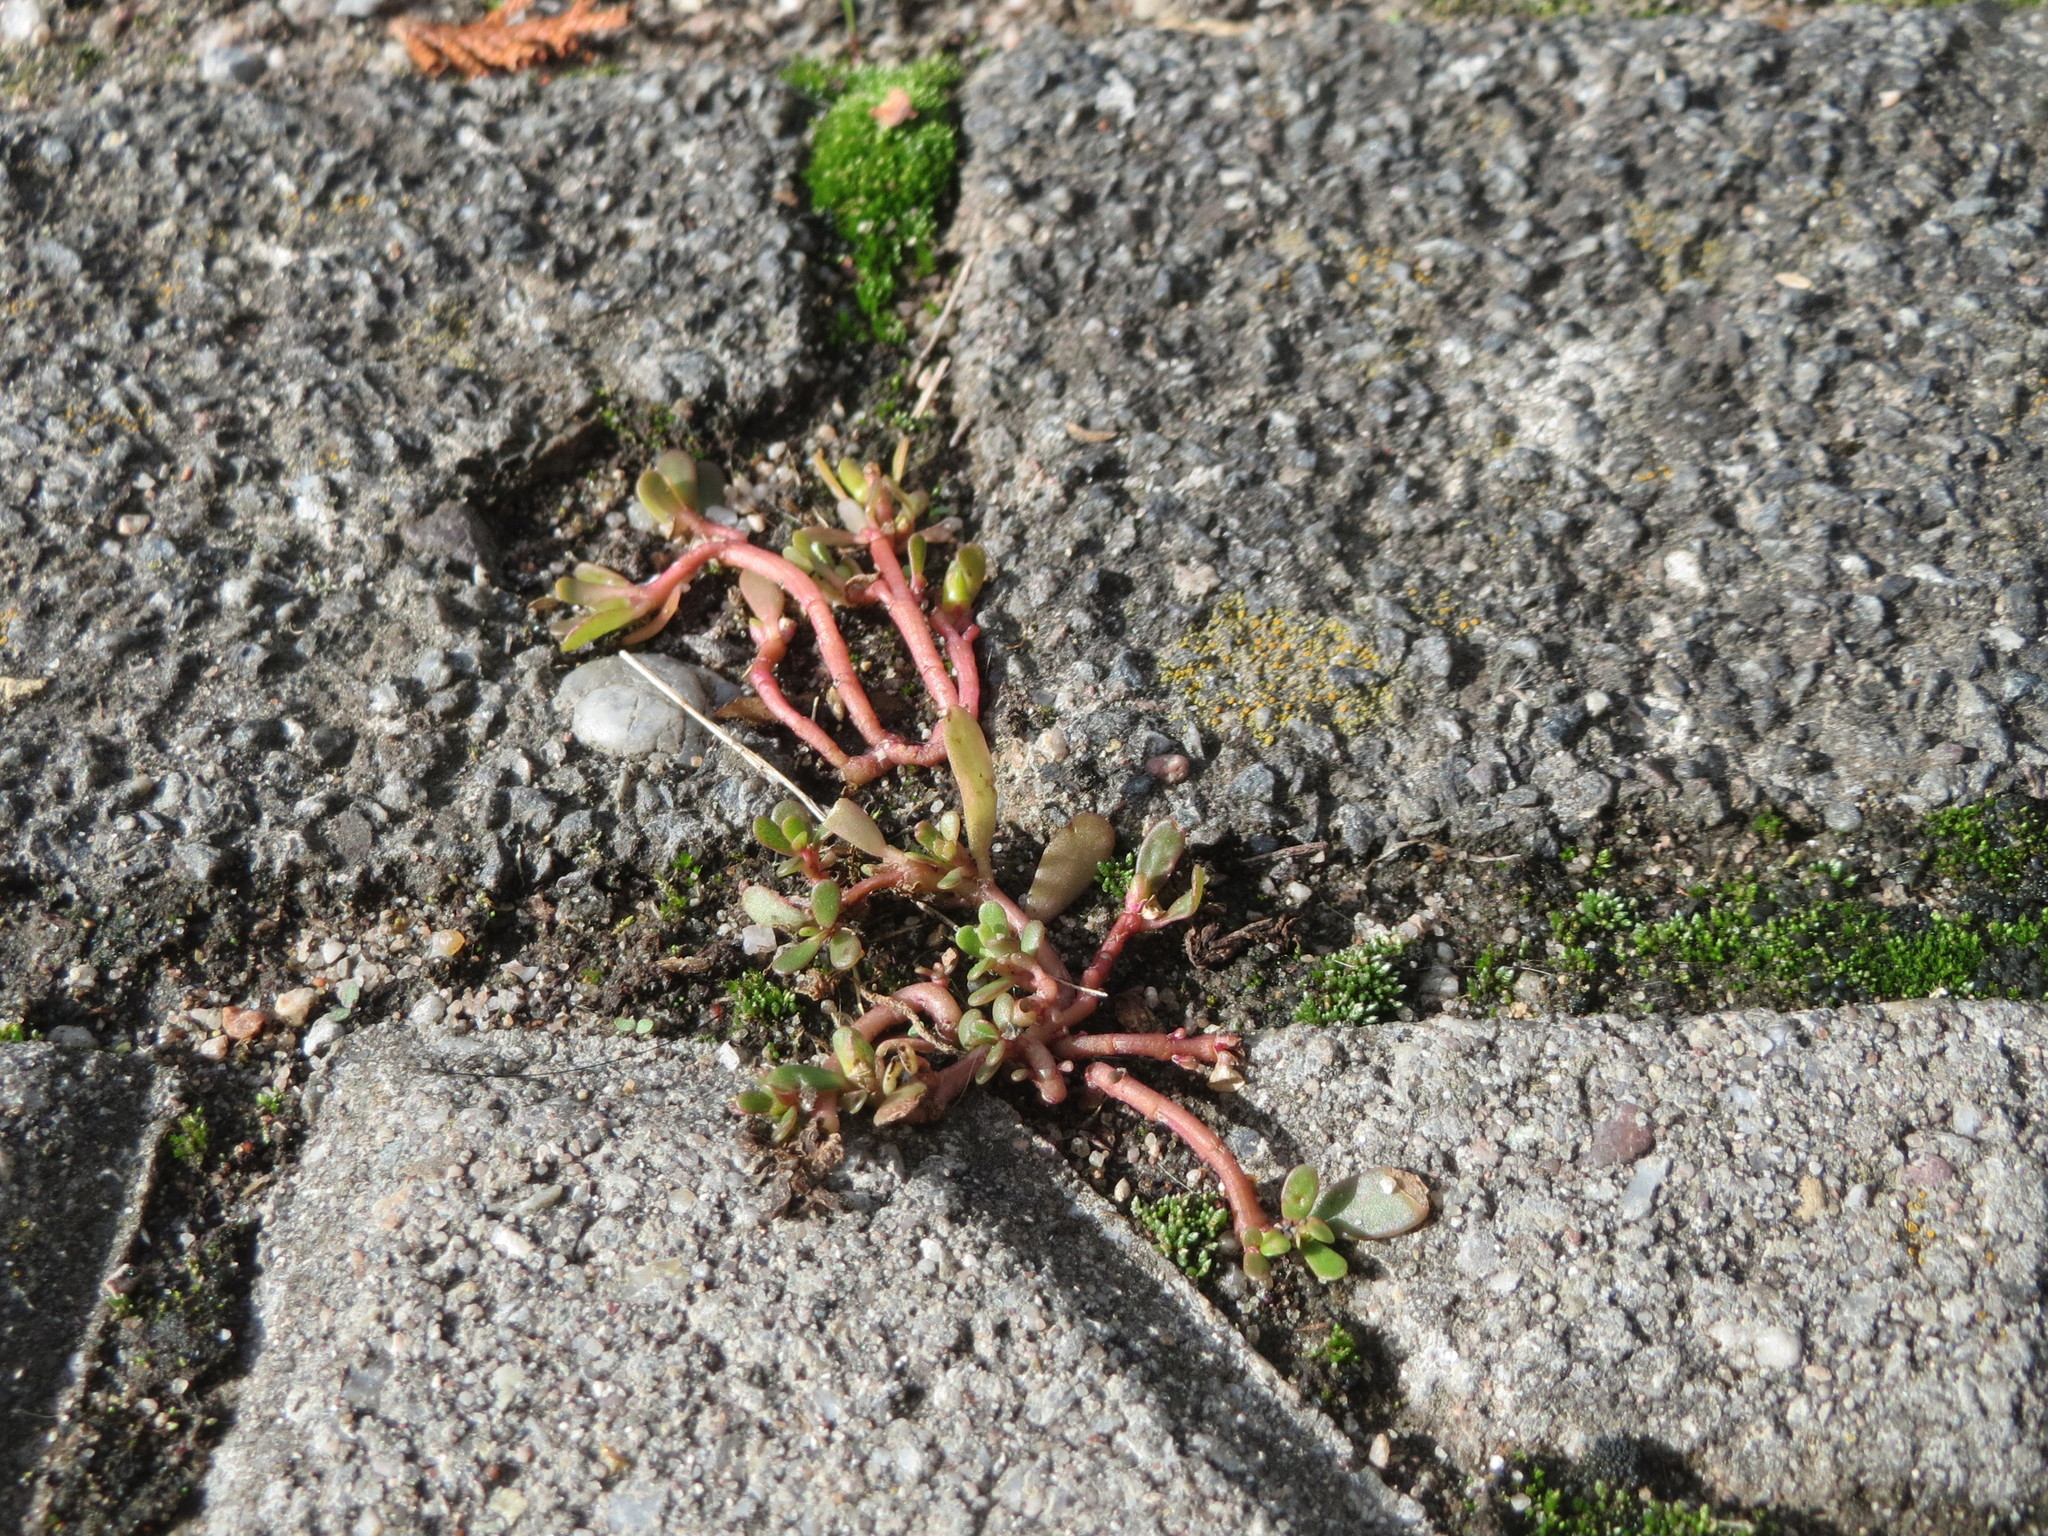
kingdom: Plantae
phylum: Tracheophyta
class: Magnoliopsida
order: Caryophyllales
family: Portulacaceae
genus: Portulaca
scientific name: Portulaca oleracea
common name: Common purslane
